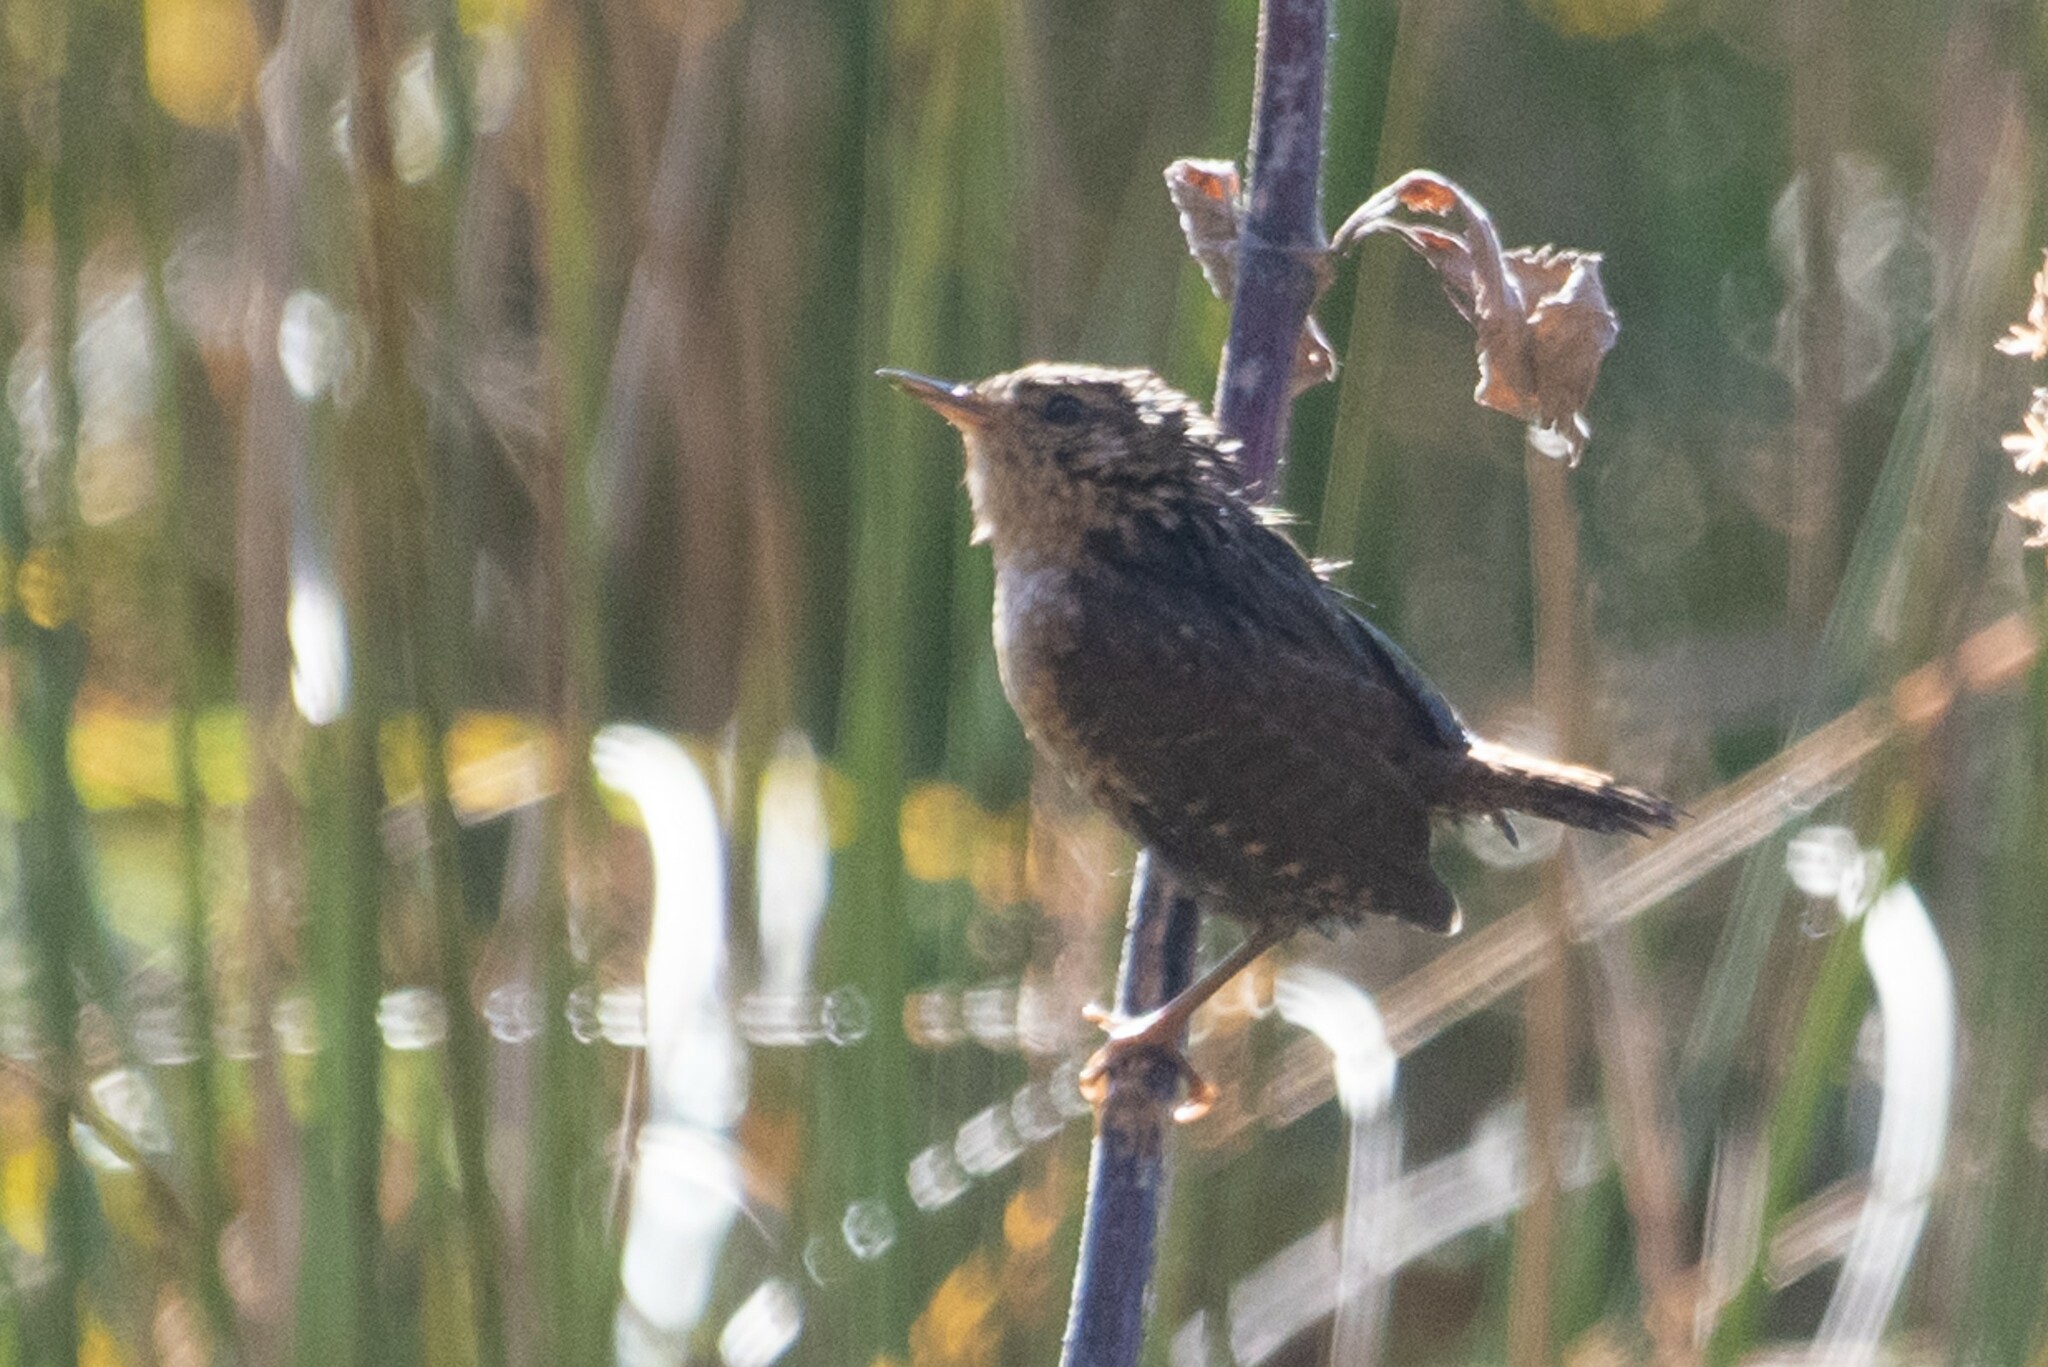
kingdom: Animalia
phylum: Chordata
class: Aves
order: Passeriformes
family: Troglodytidae
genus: Troglodytes
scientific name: Troglodytes hiemalis
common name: Winter wren
